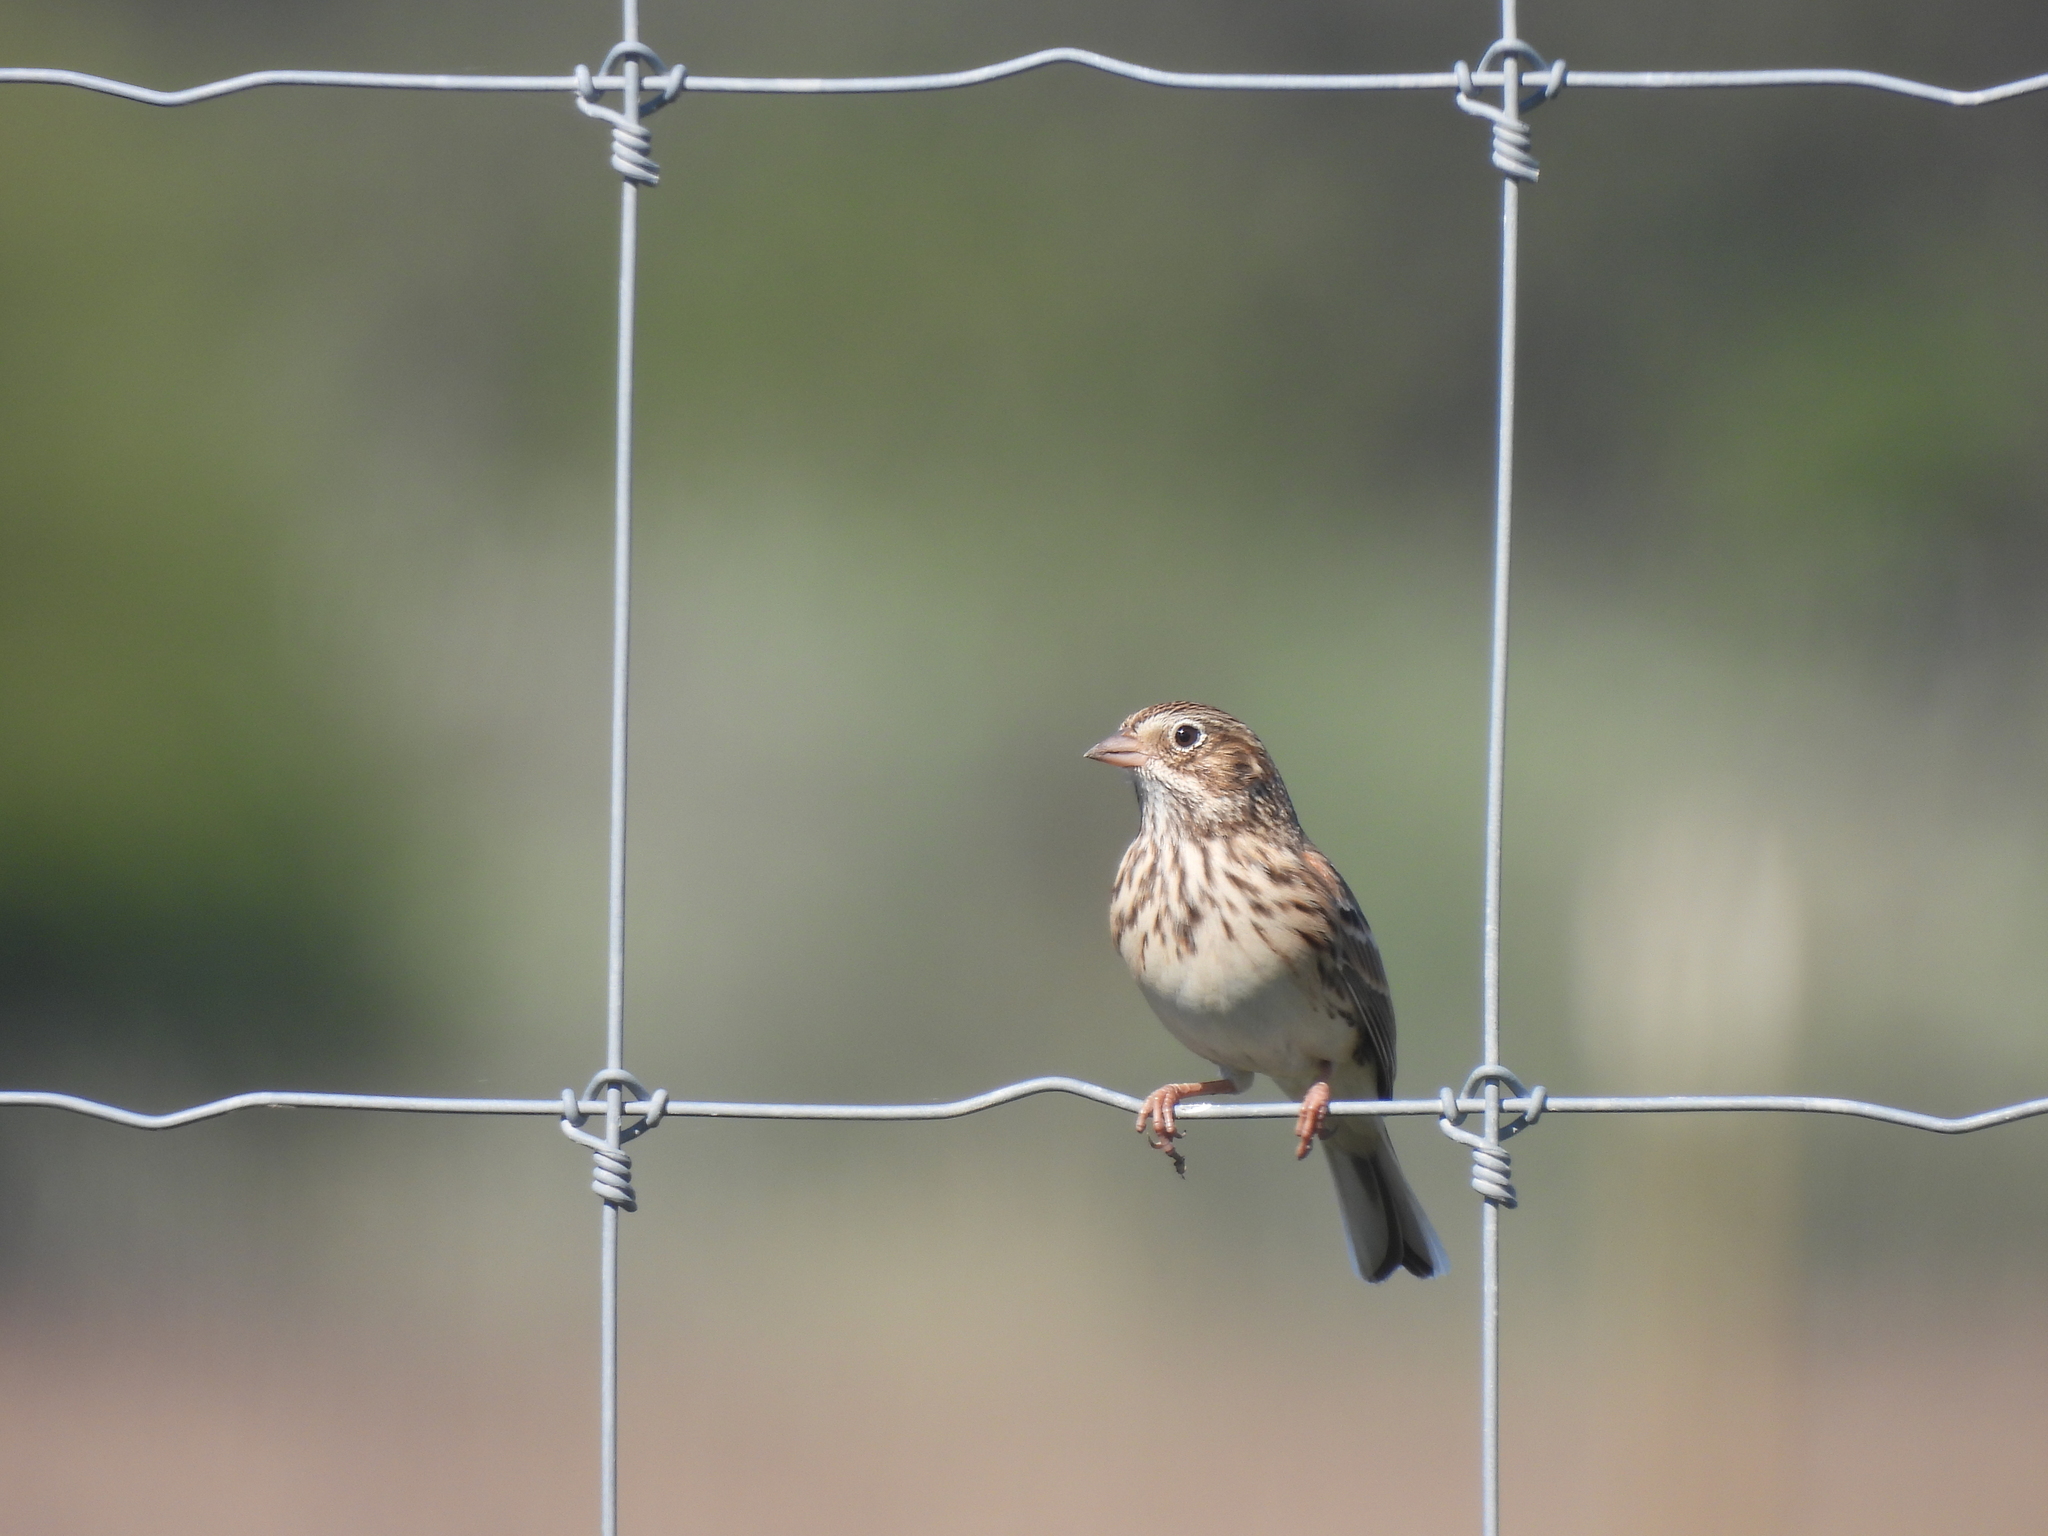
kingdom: Animalia
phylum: Chordata
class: Aves
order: Passeriformes
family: Passerellidae
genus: Pooecetes
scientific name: Pooecetes gramineus
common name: Vesper sparrow
